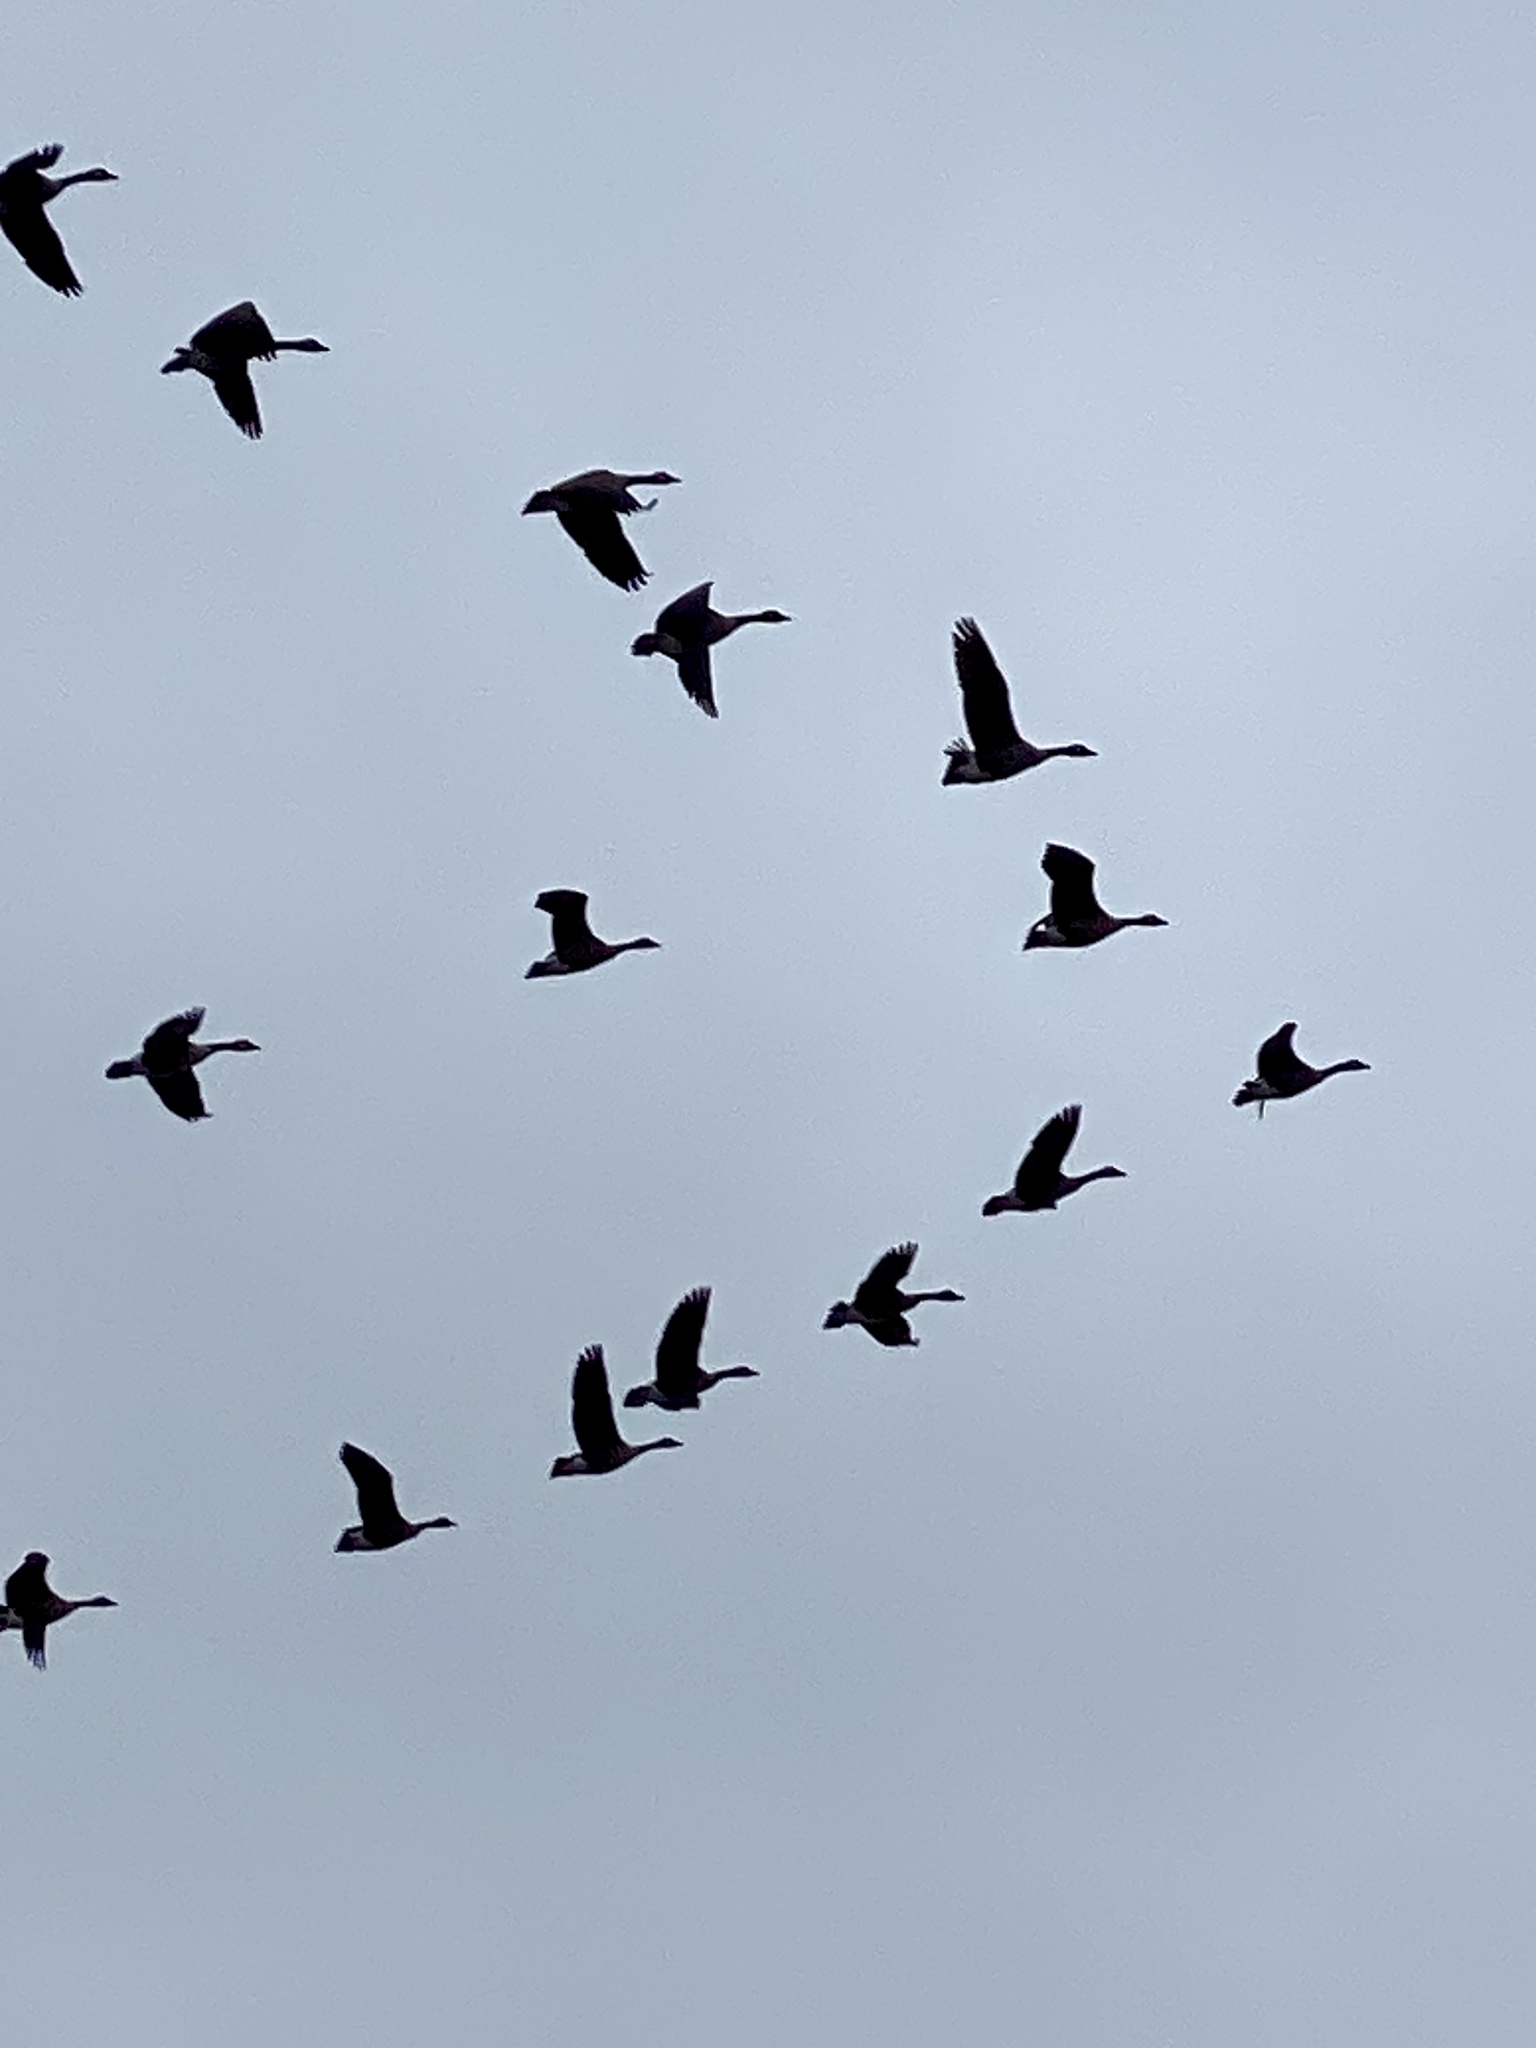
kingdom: Animalia
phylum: Chordata
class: Aves
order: Anseriformes
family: Anatidae
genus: Branta
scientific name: Branta canadensis
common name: Canada goose
